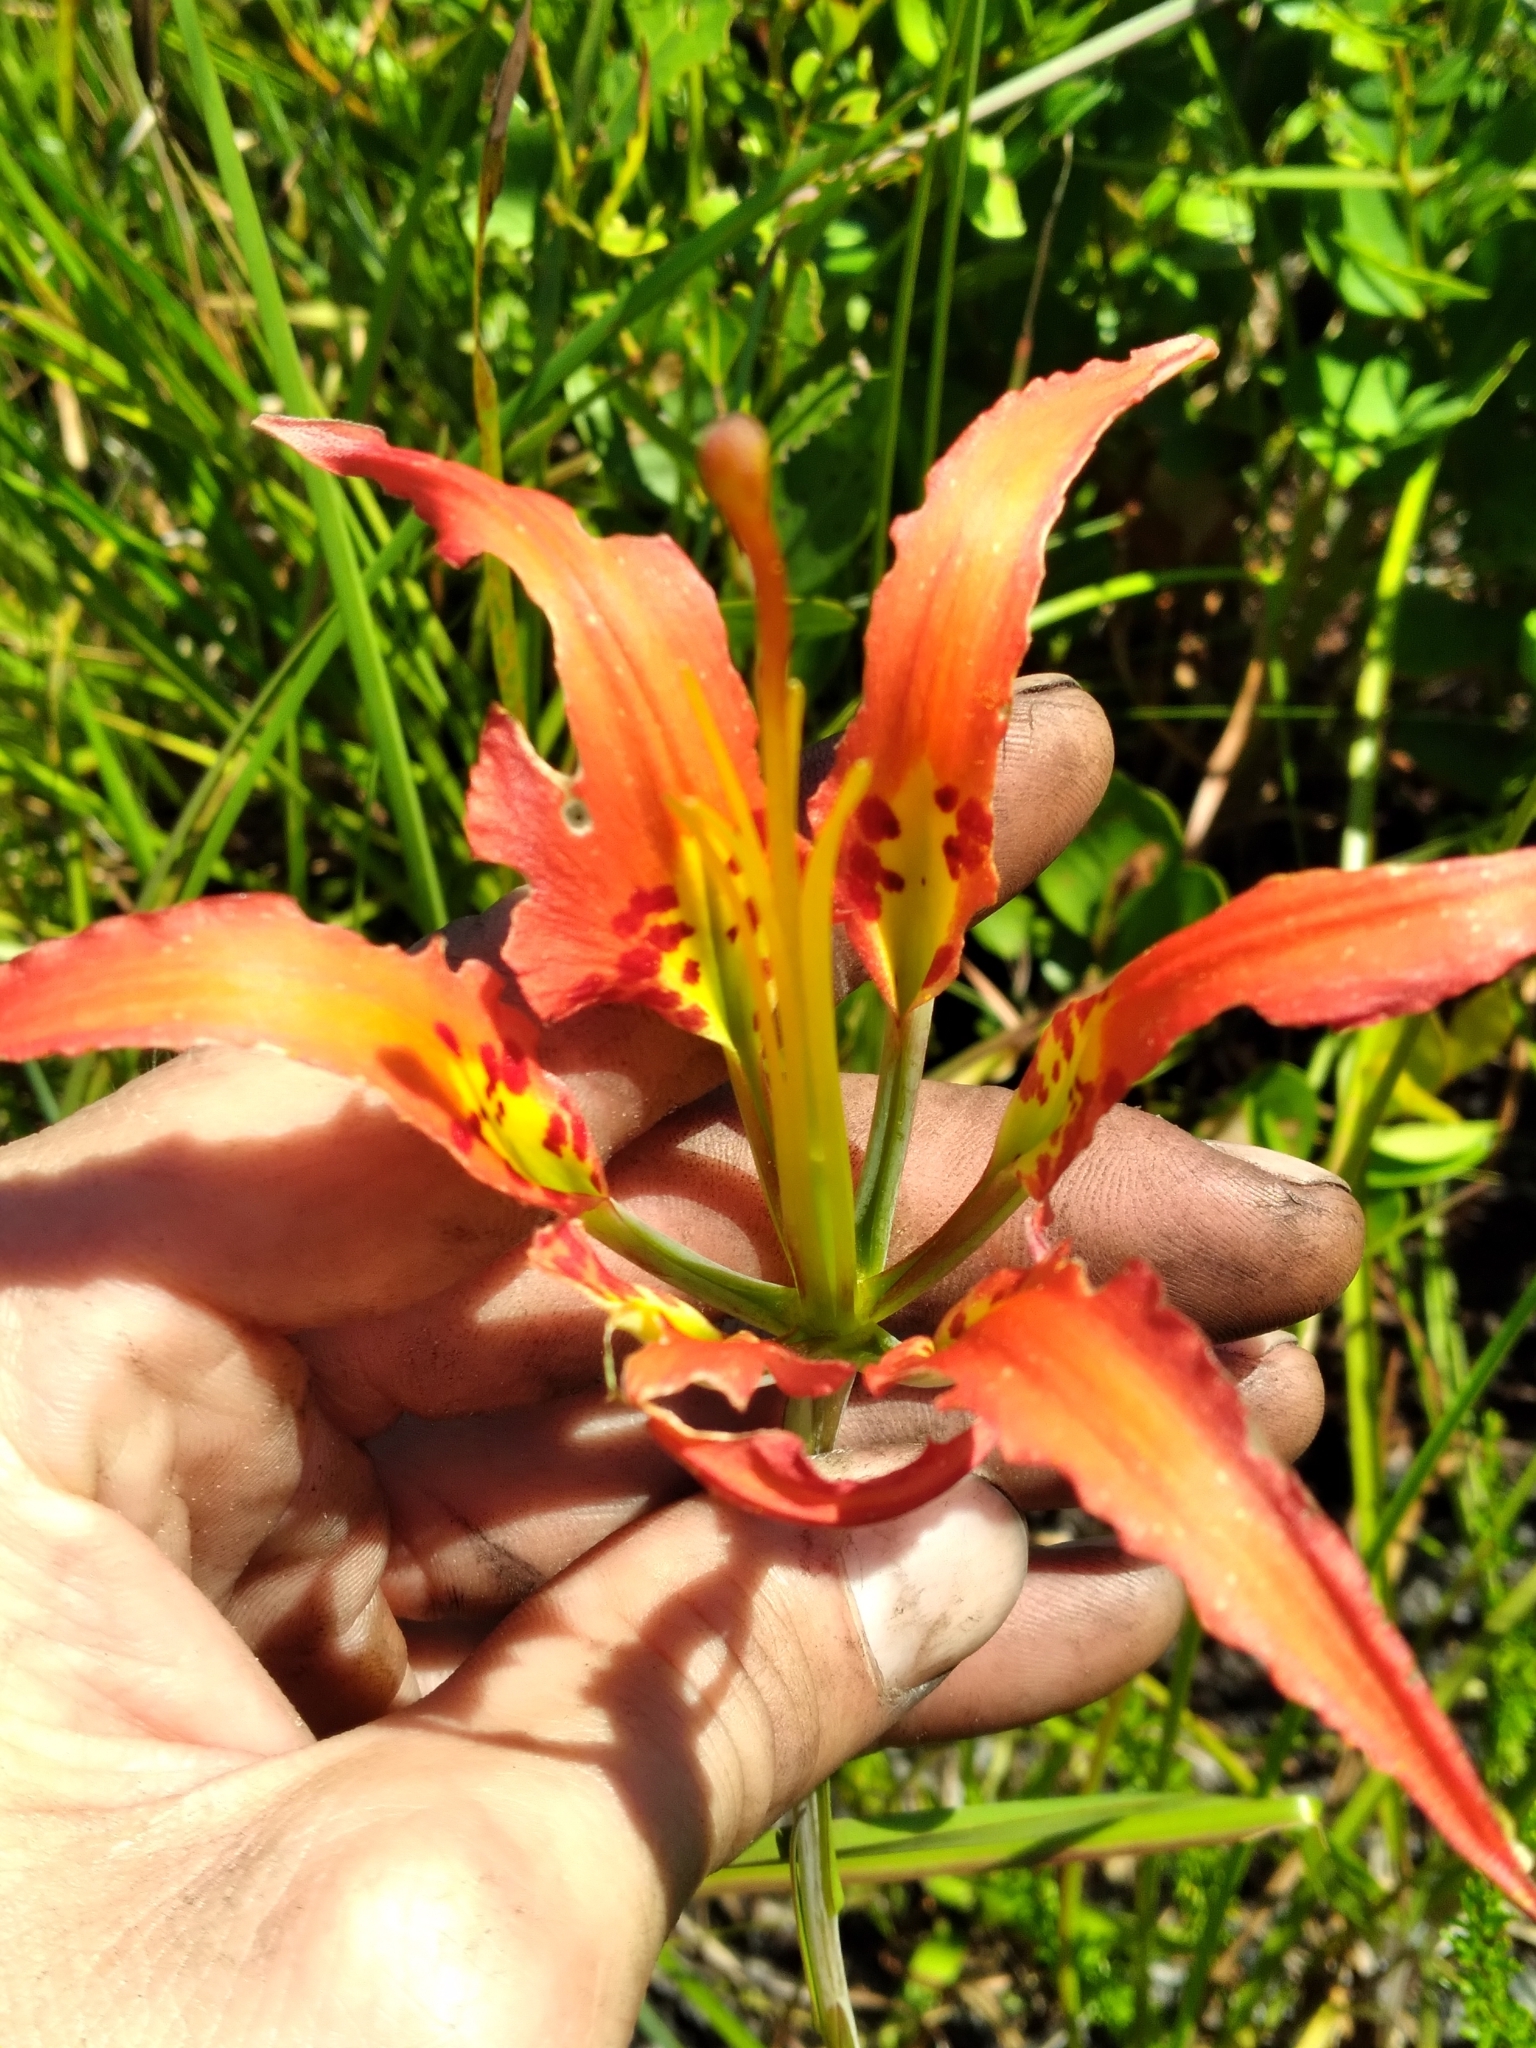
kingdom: Plantae
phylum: Tracheophyta
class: Liliopsida
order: Liliales
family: Liliaceae
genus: Lilium
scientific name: Lilium catesbaei
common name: Catesby's lily
